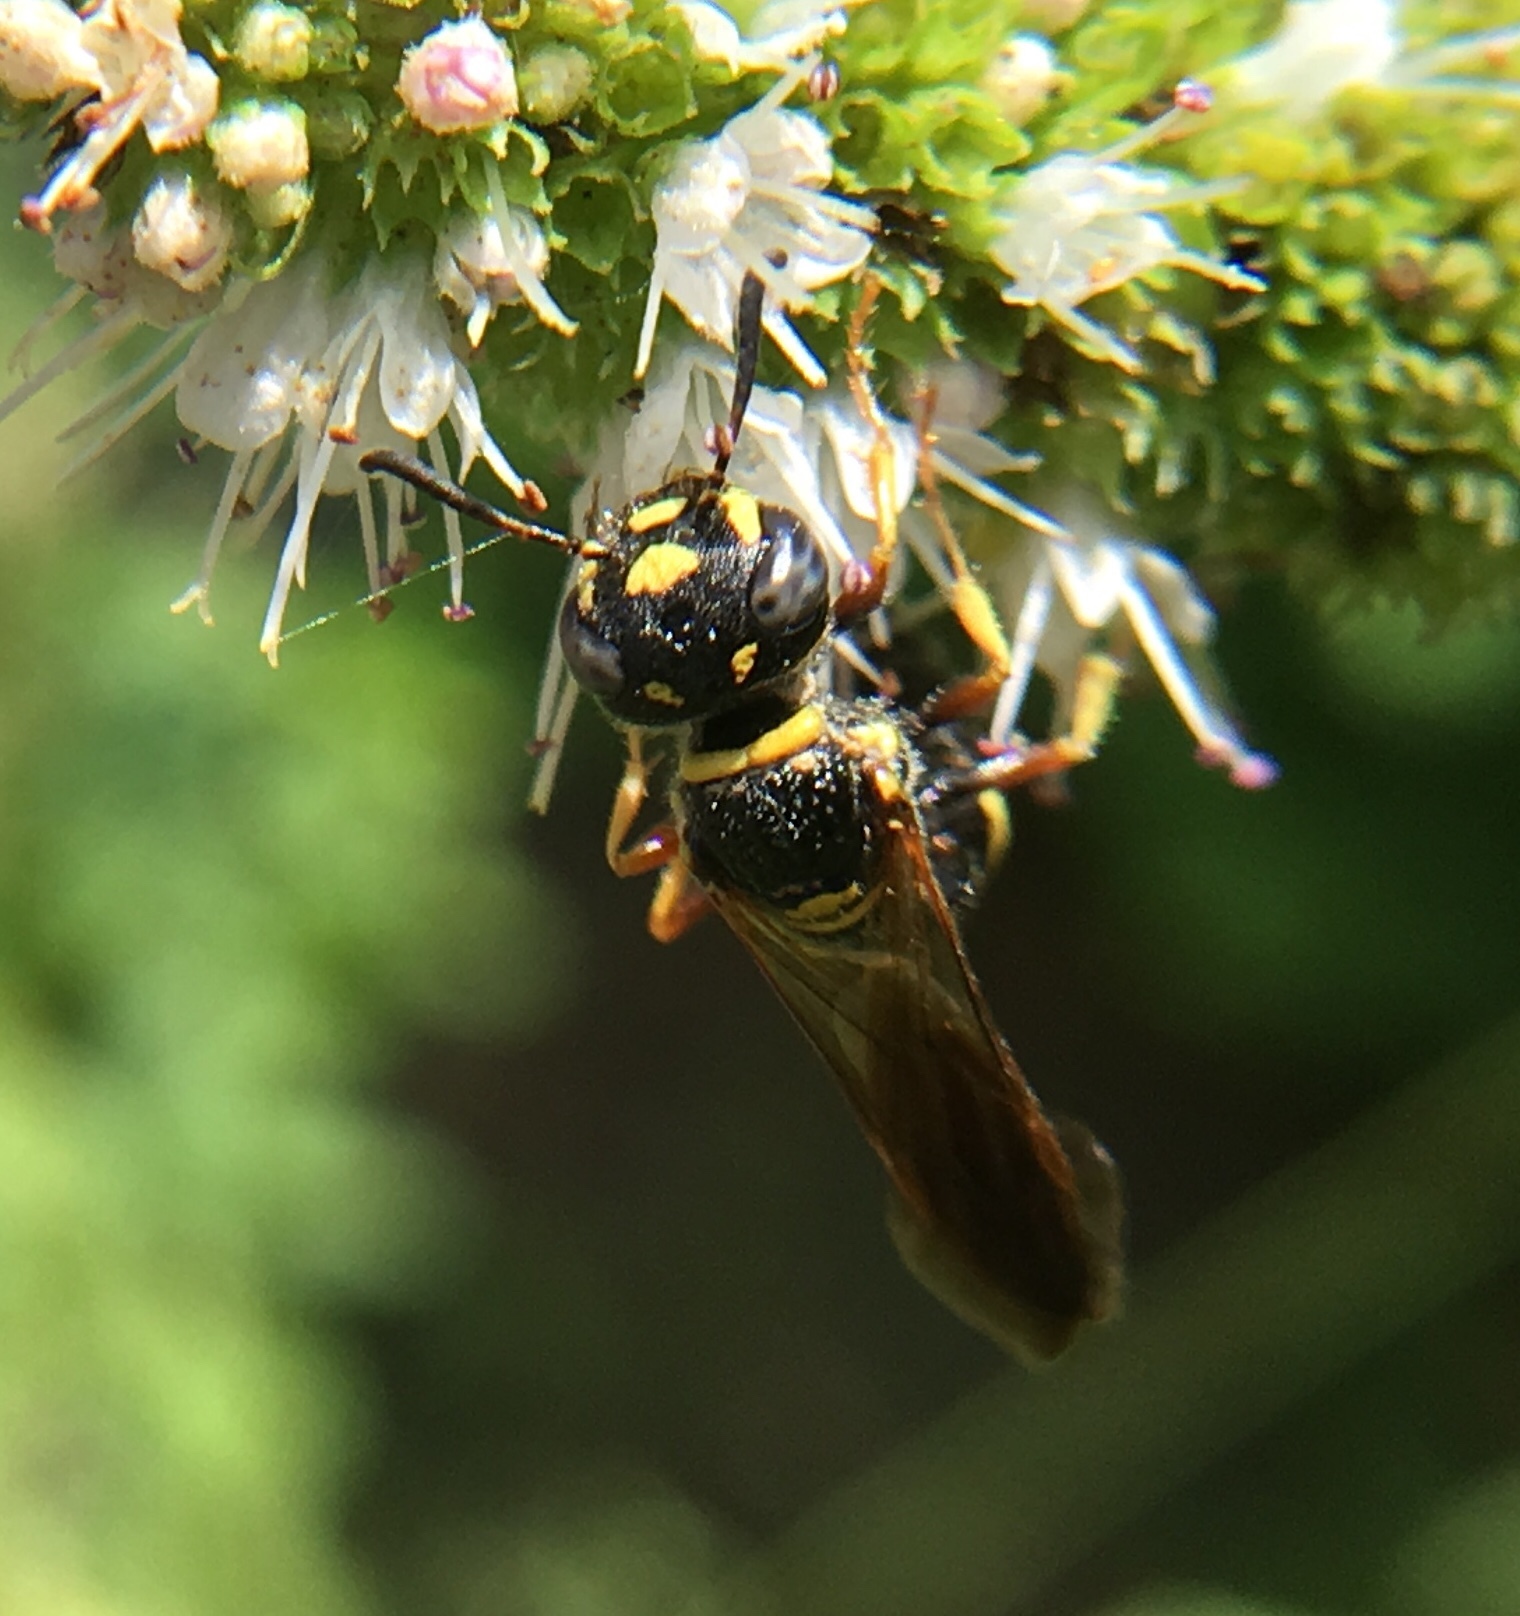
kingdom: Animalia
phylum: Arthropoda
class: Insecta
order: Hymenoptera
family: Crabronidae
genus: Philanthus
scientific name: Philanthus gibbosus
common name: Humped beewolf
